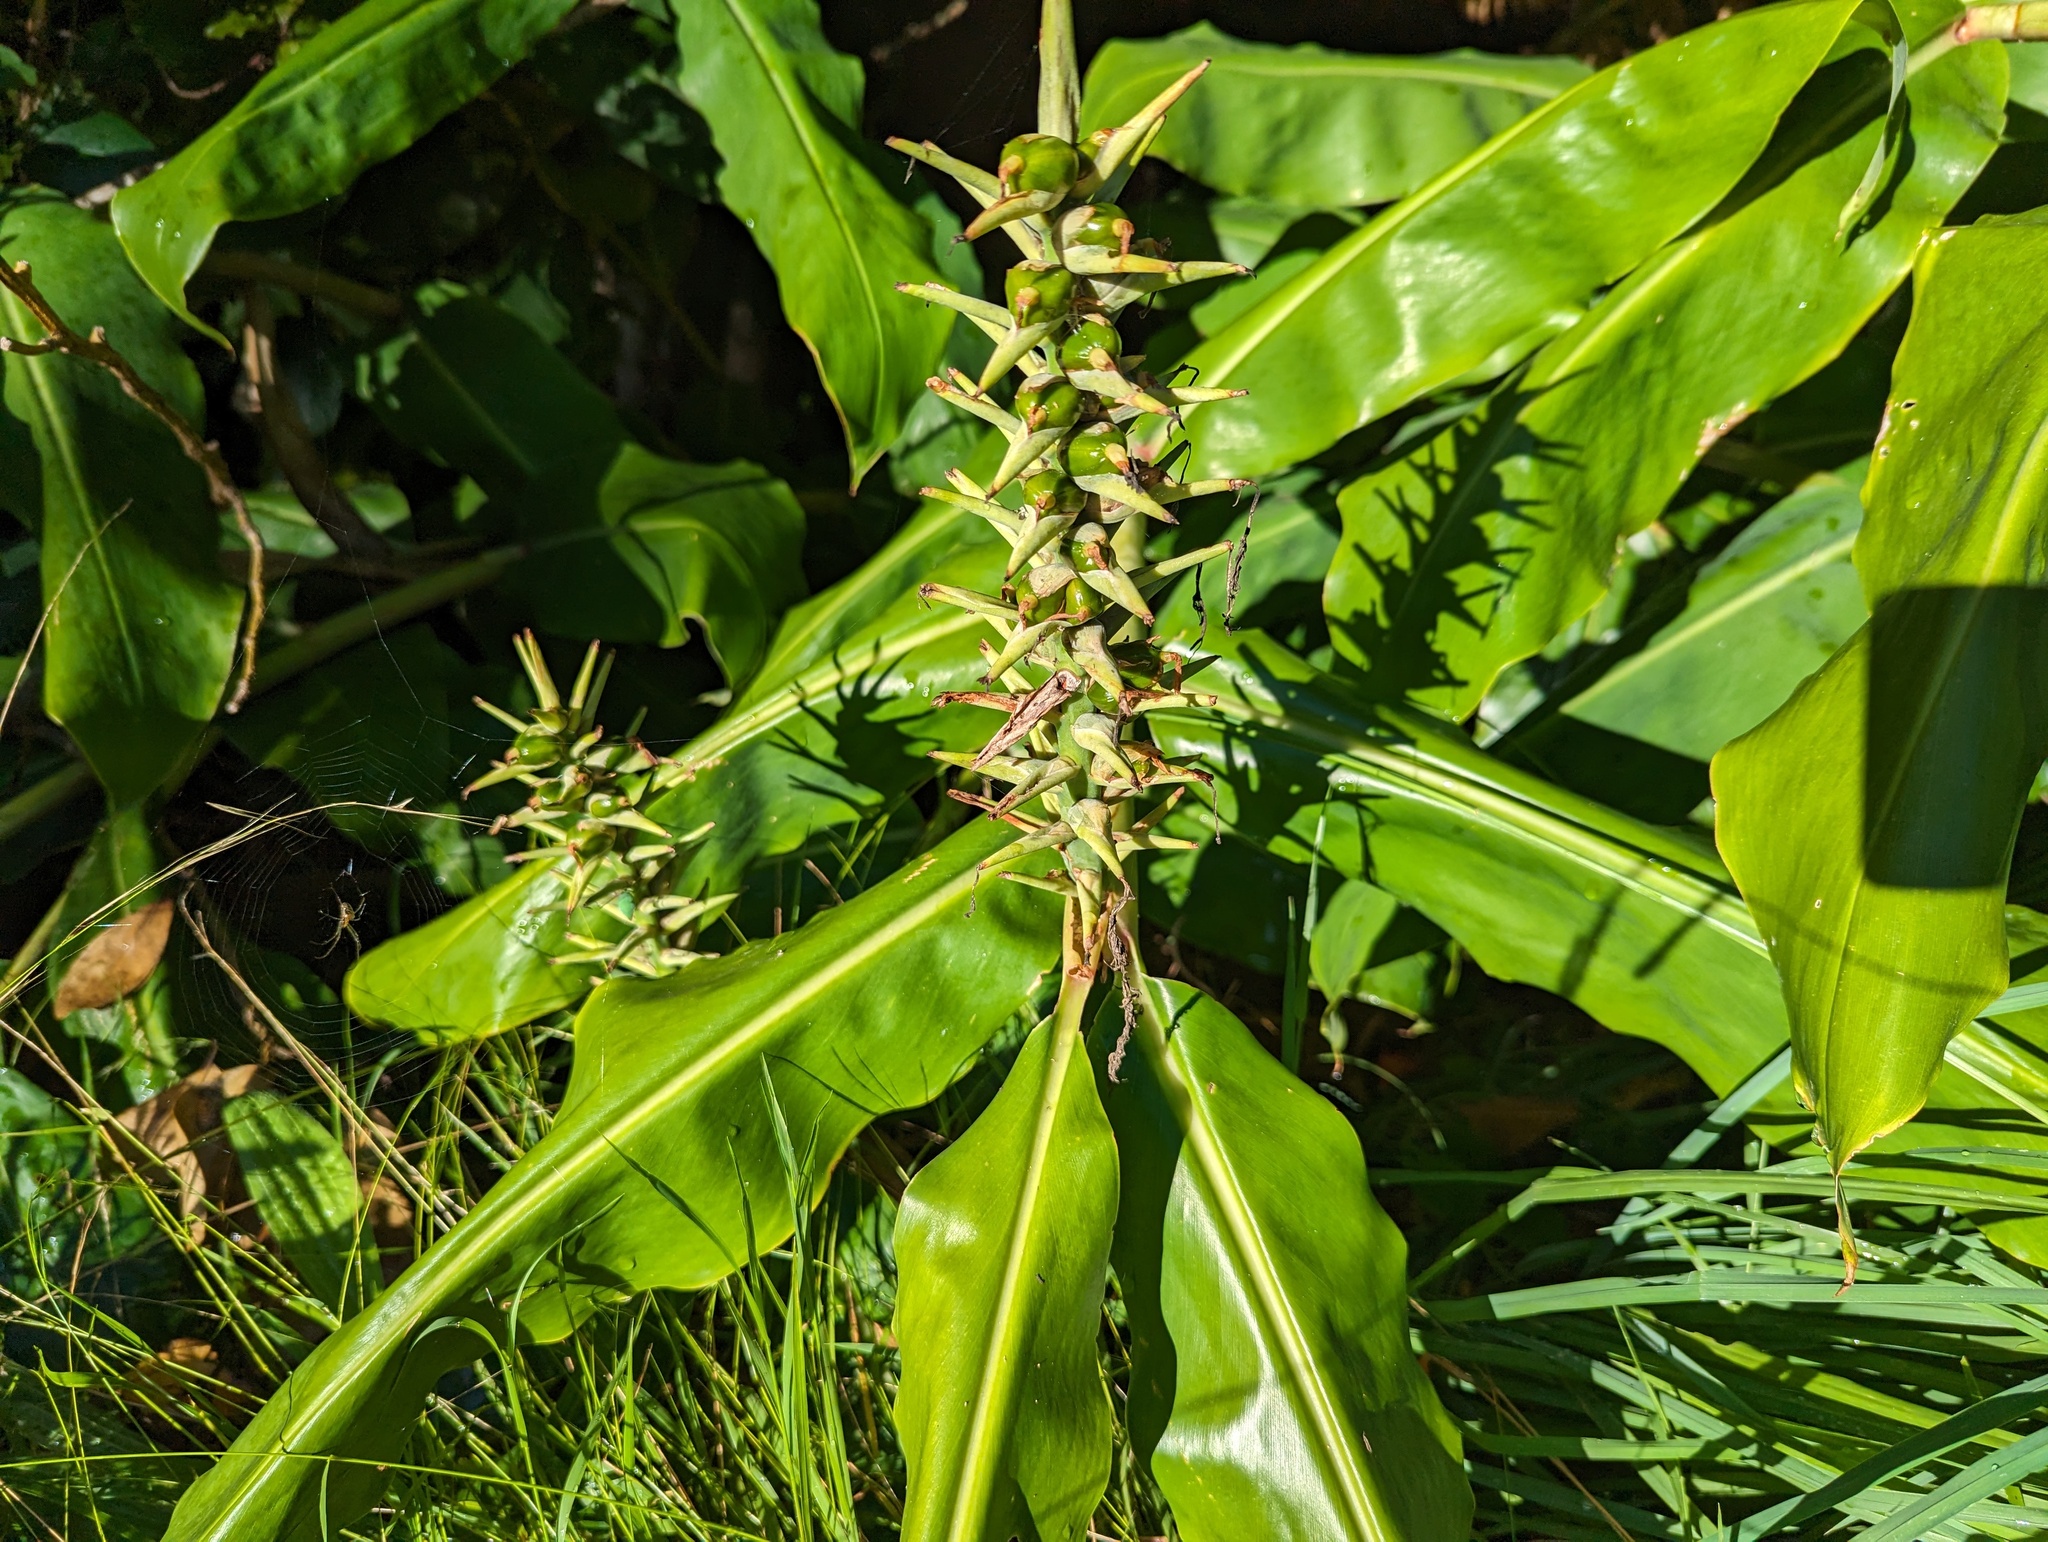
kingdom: Plantae
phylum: Tracheophyta
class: Liliopsida
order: Zingiberales
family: Zingiberaceae
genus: Hedychium
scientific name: Hedychium gardnerianum
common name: Himalayan ginger
